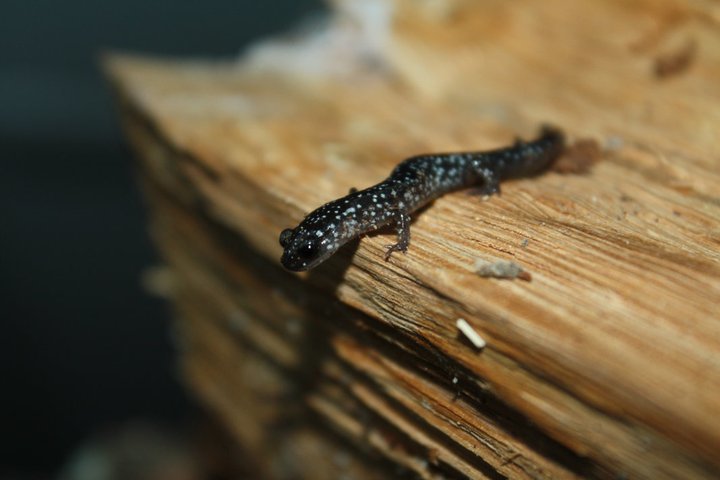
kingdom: Animalia
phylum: Chordata
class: Amphibia
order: Caudata
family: Plethodontidae
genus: Plethodon
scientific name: Plethodon cylindraceus
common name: White-spotted slimy salamander
